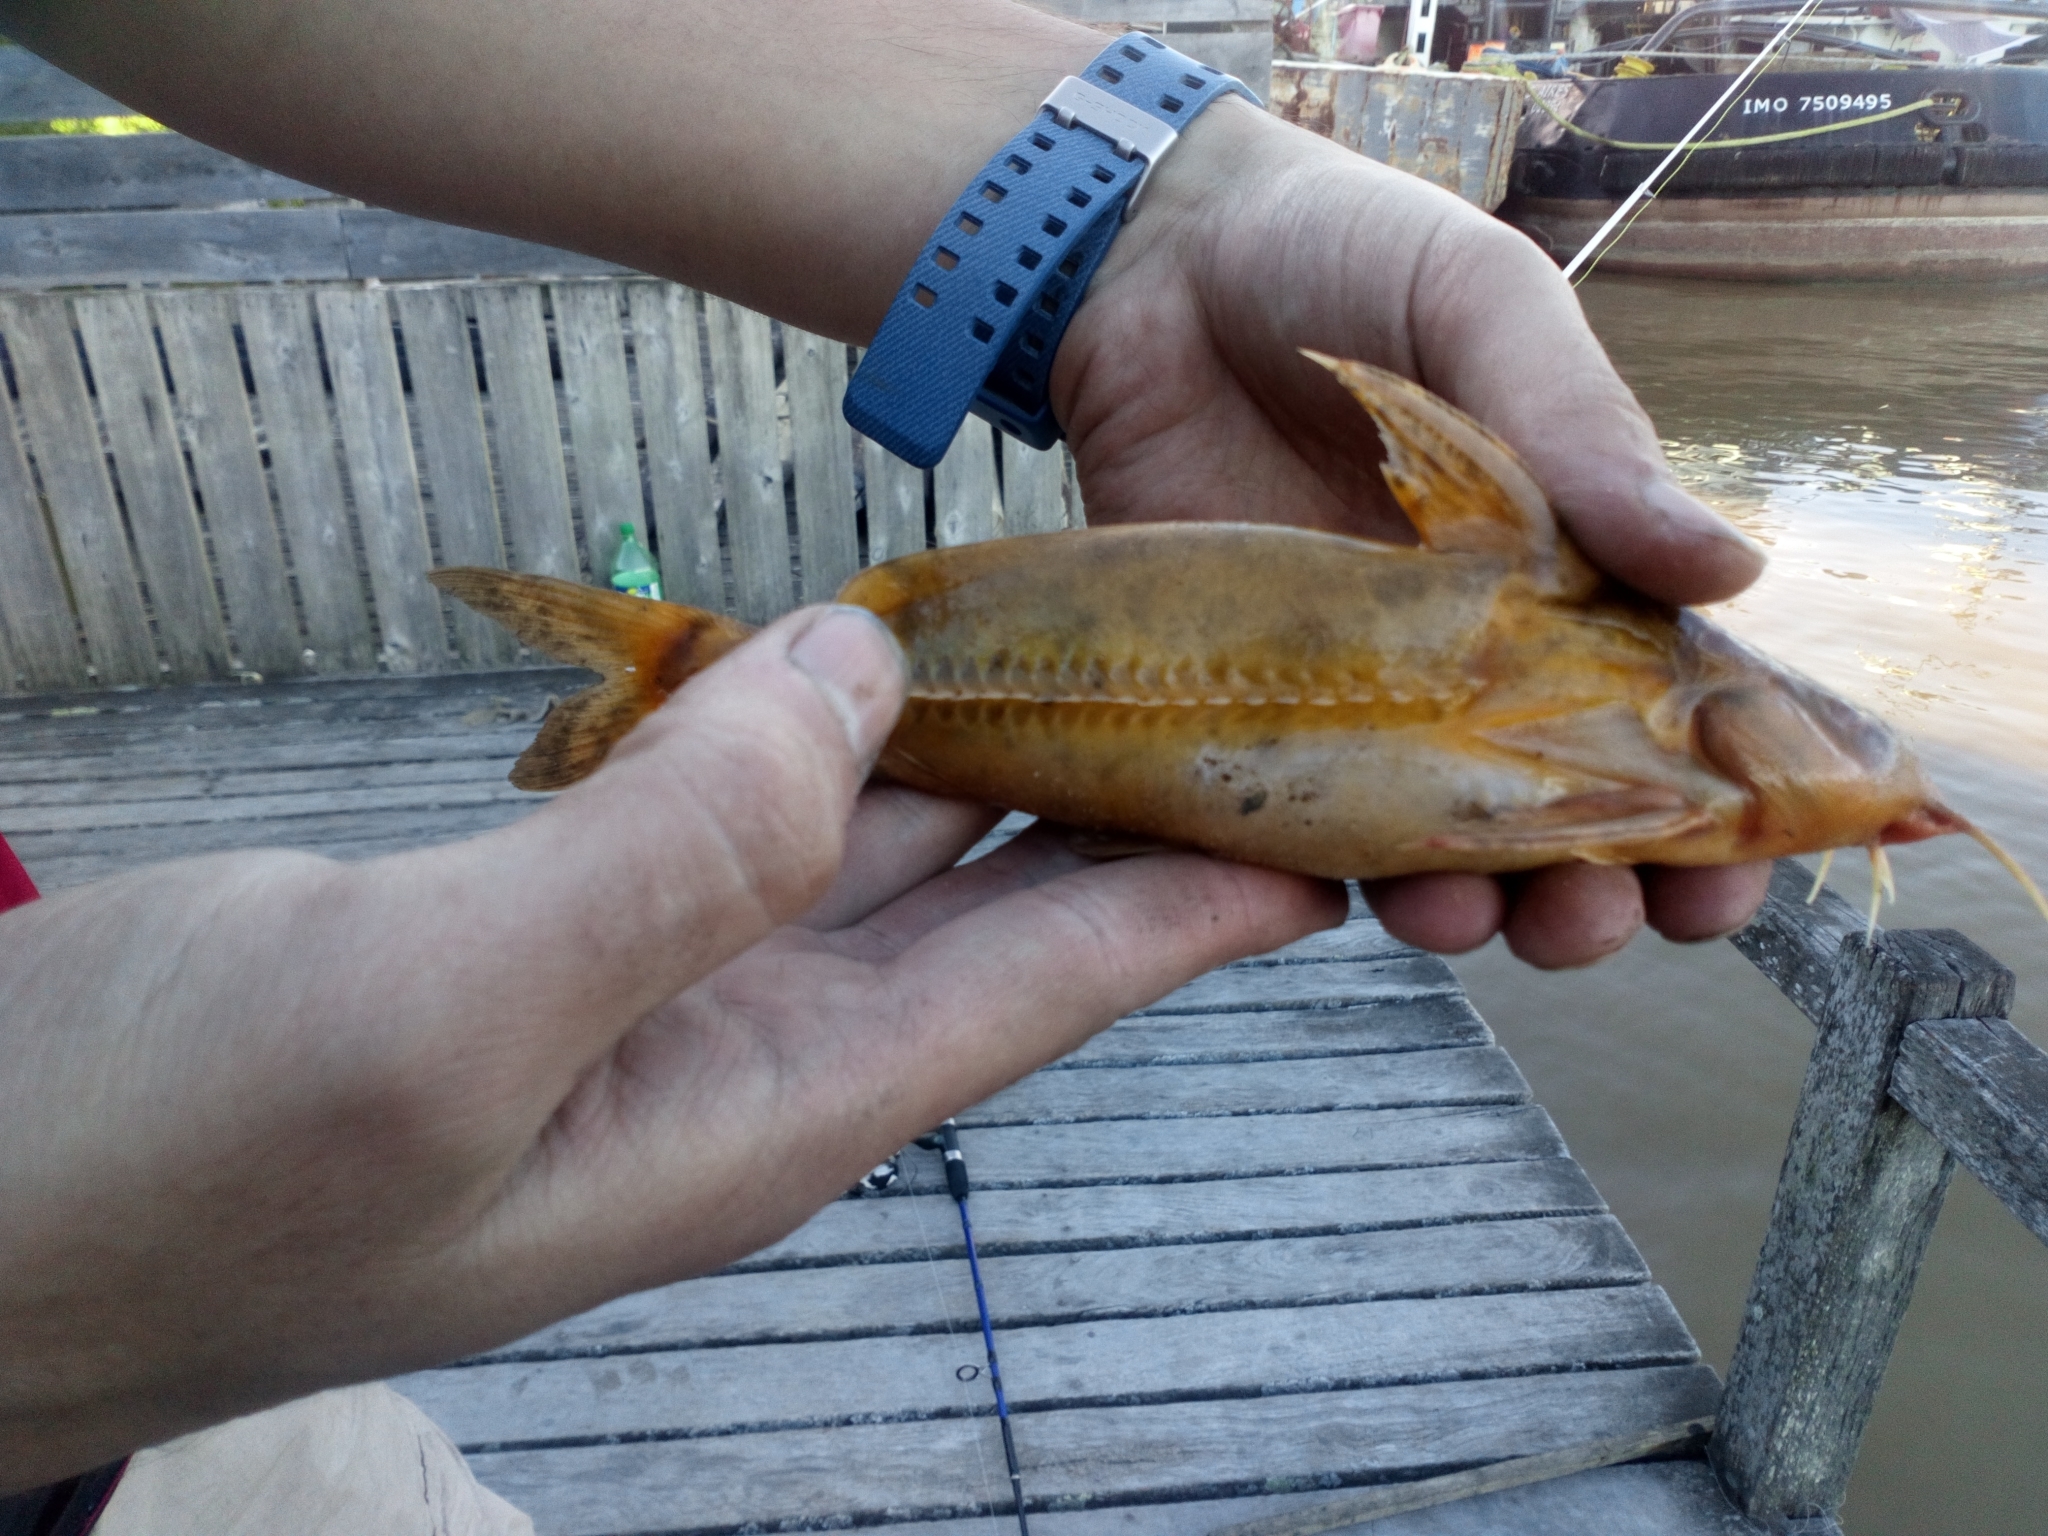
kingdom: Animalia
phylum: Chordata
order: Siluriformes
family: Doradidae
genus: Rhinodoras
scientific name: Rhinodoras dorbignyi
